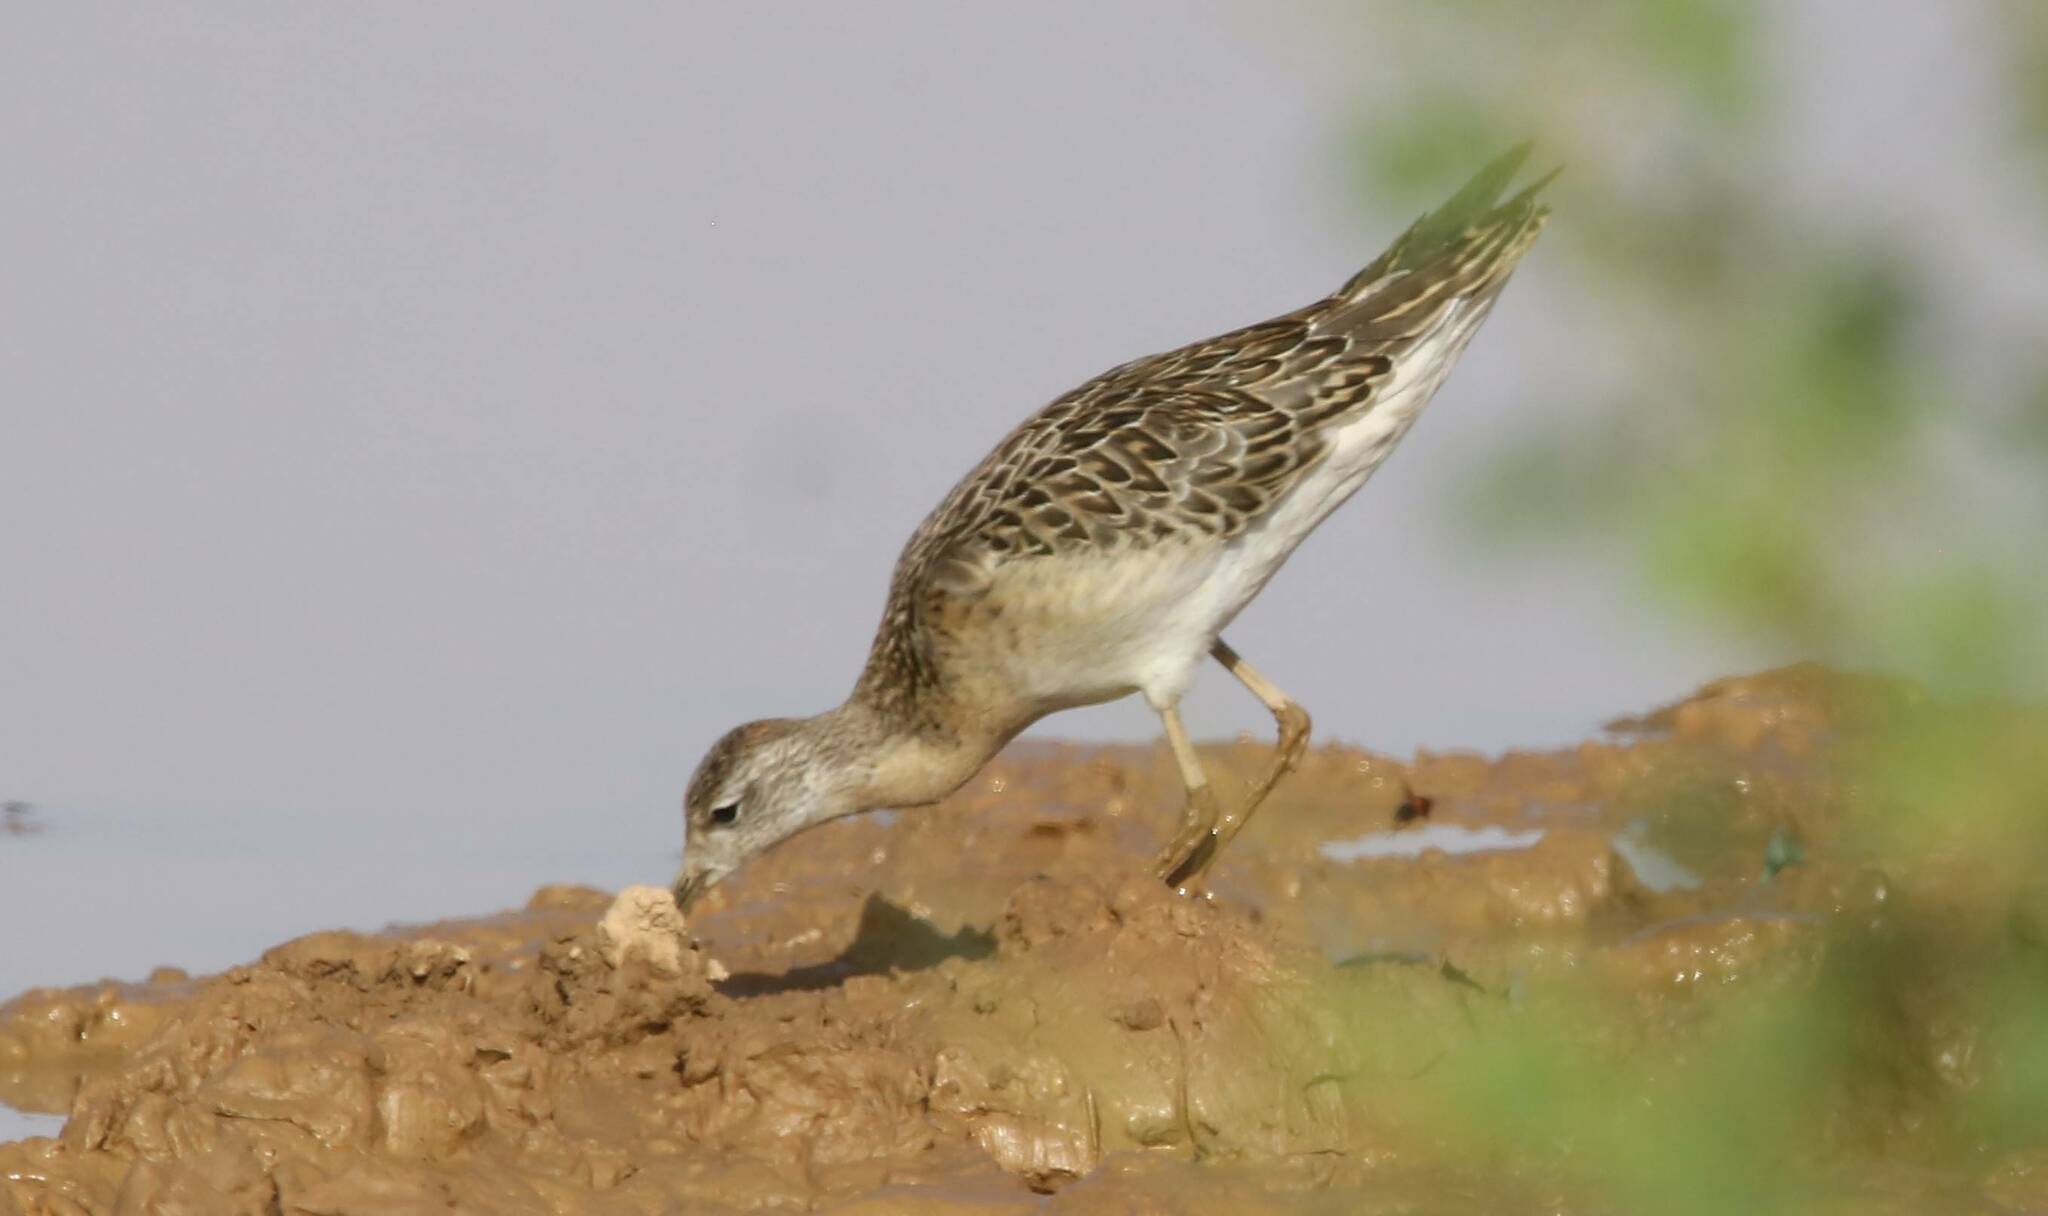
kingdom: Animalia
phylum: Chordata
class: Aves
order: Charadriiformes
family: Scolopacidae
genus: Calidris
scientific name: Calidris pugnax
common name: Ruff
